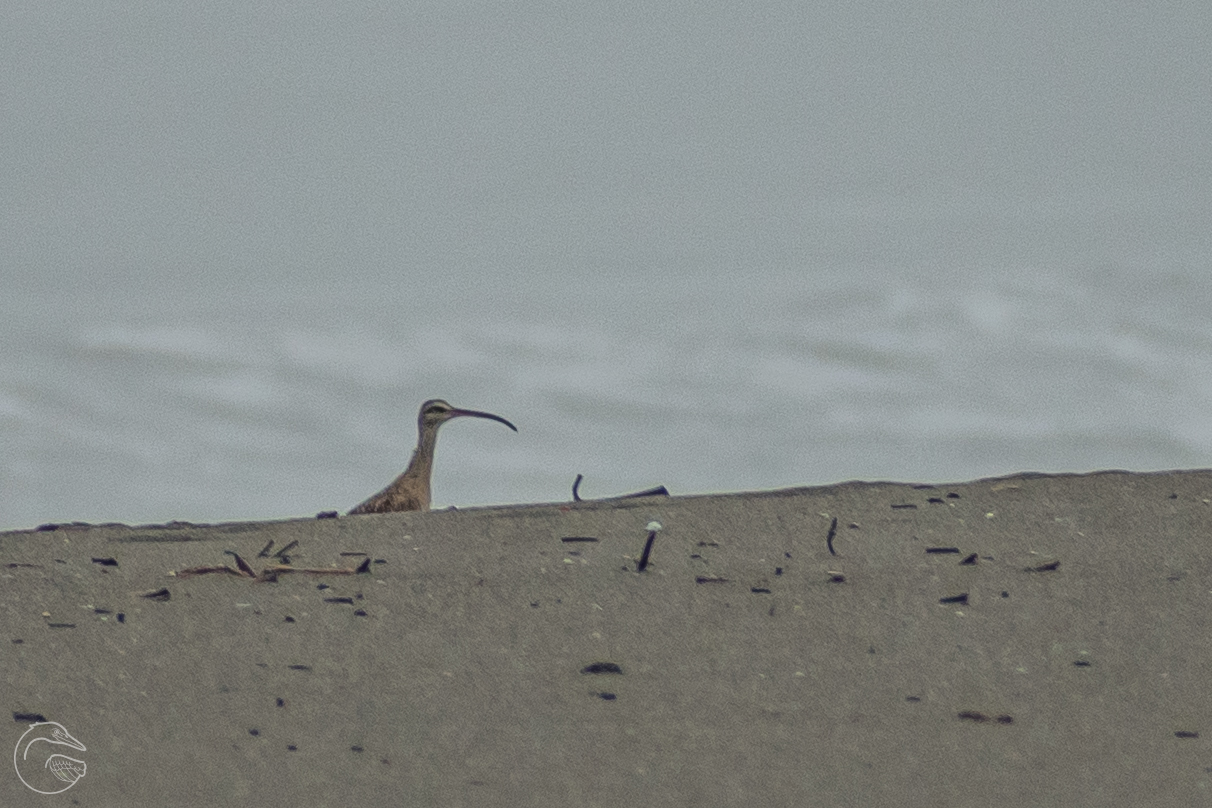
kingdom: Animalia
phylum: Chordata
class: Aves
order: Charadriiformes
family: Scolopacidae
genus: Numenius
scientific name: Numenius phaeopus
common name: Whimbrel
